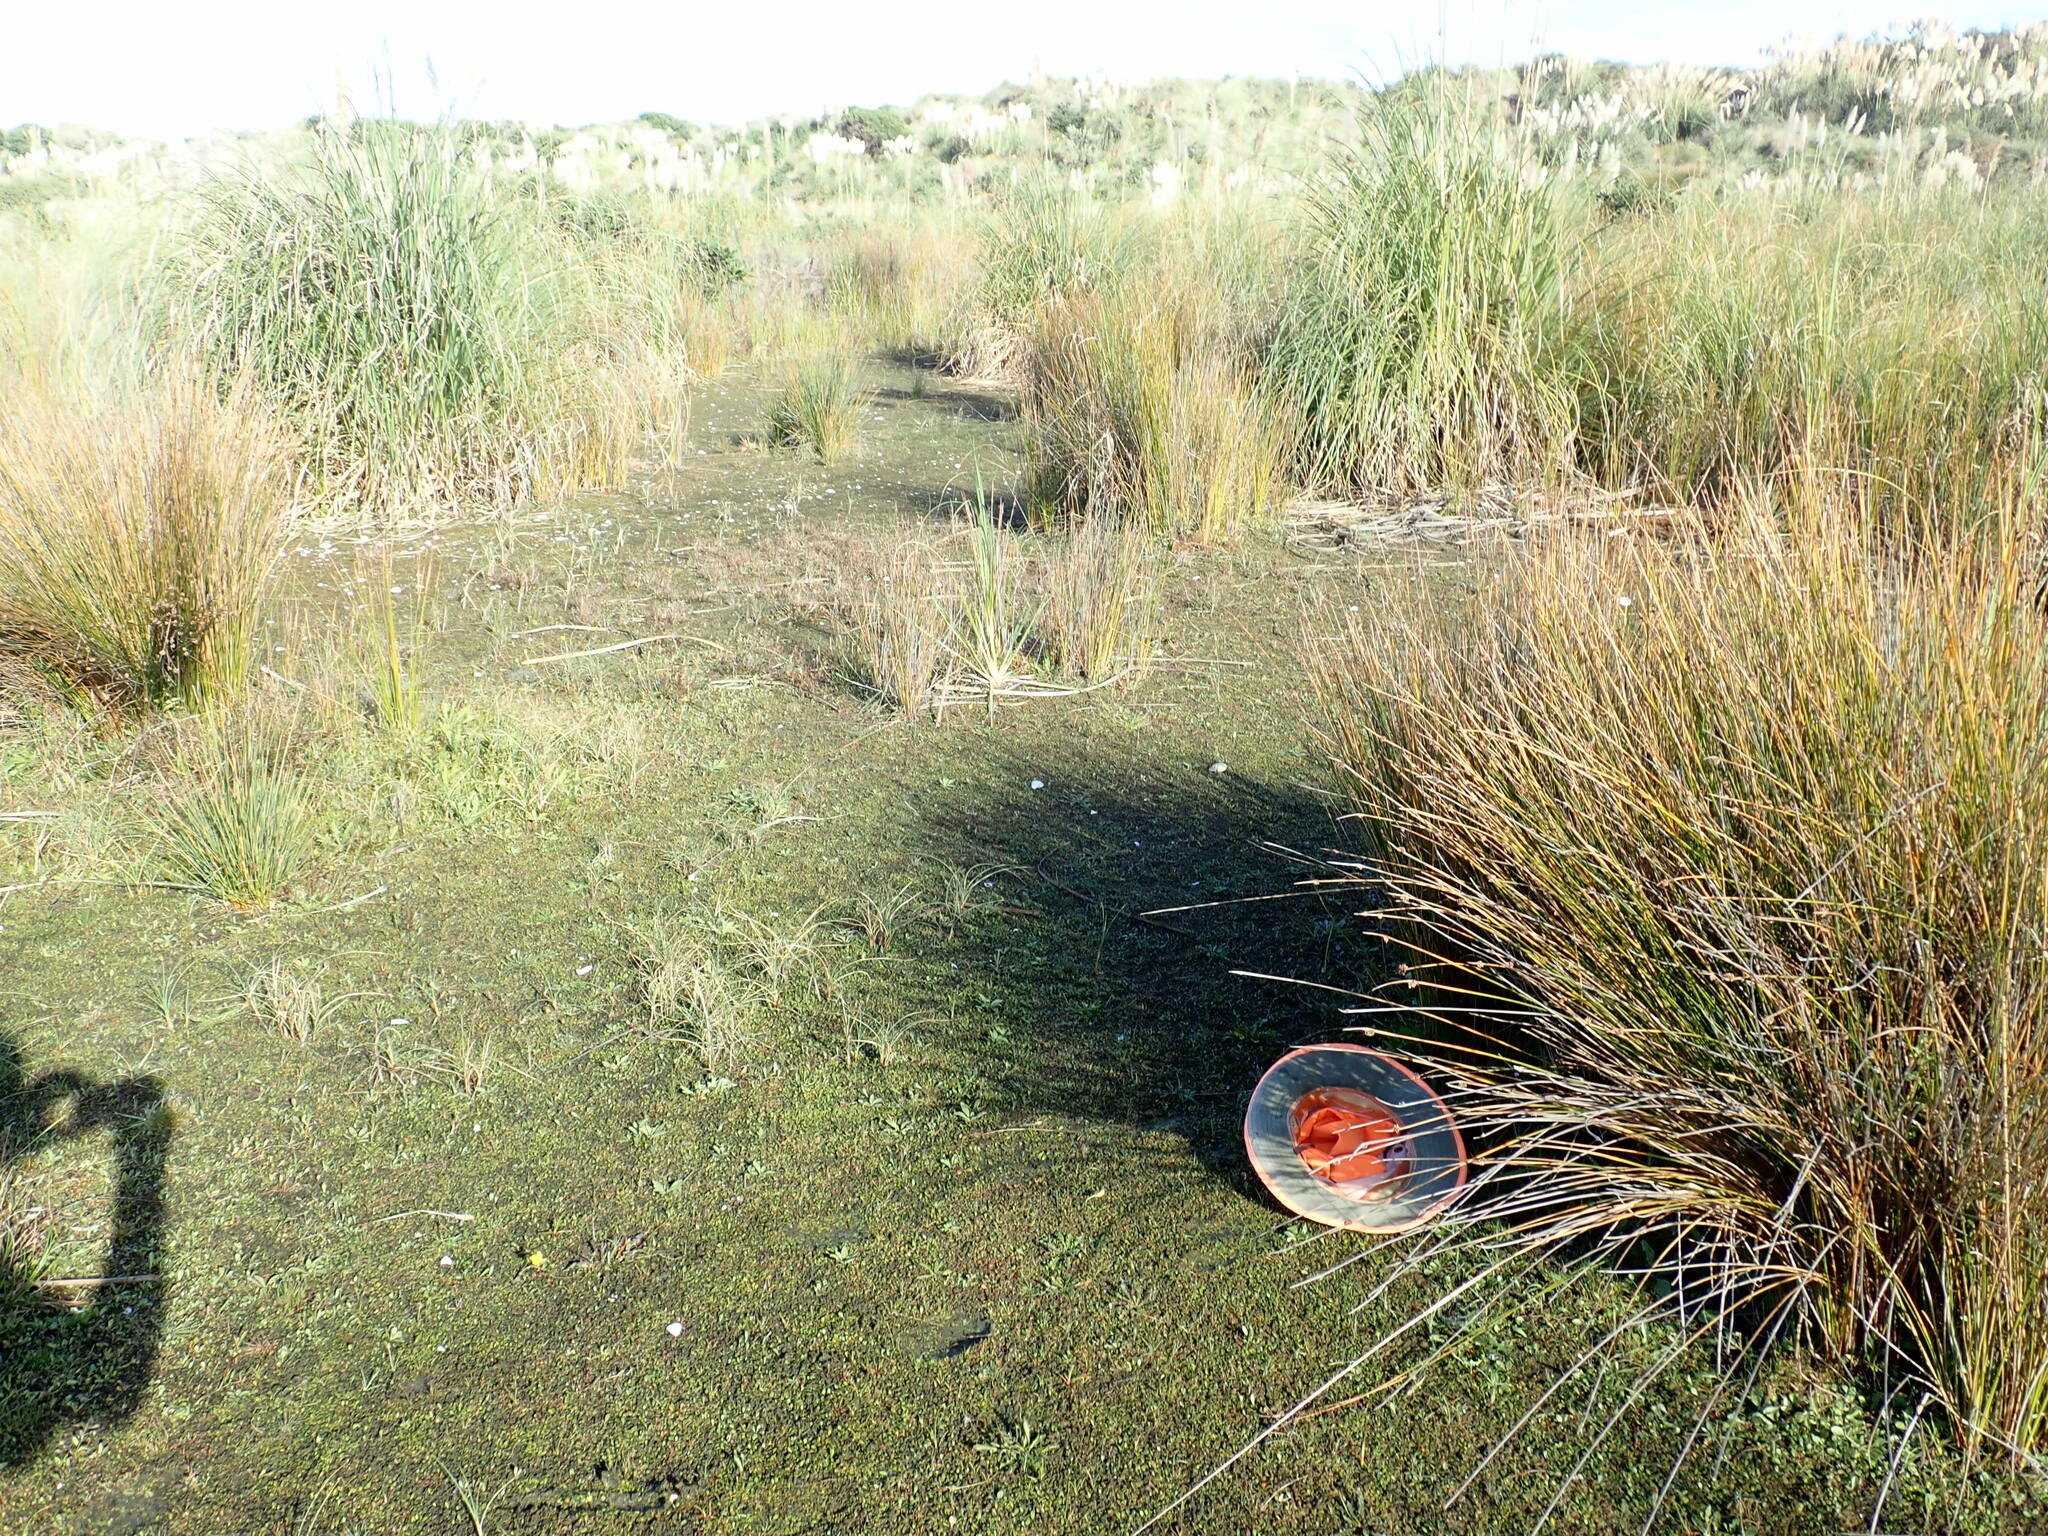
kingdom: Plantae
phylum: Tracheophyta
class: Magnoliopsida
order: Asterales
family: Campanulaceae
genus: Lobelia
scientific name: Lobelia anceps
